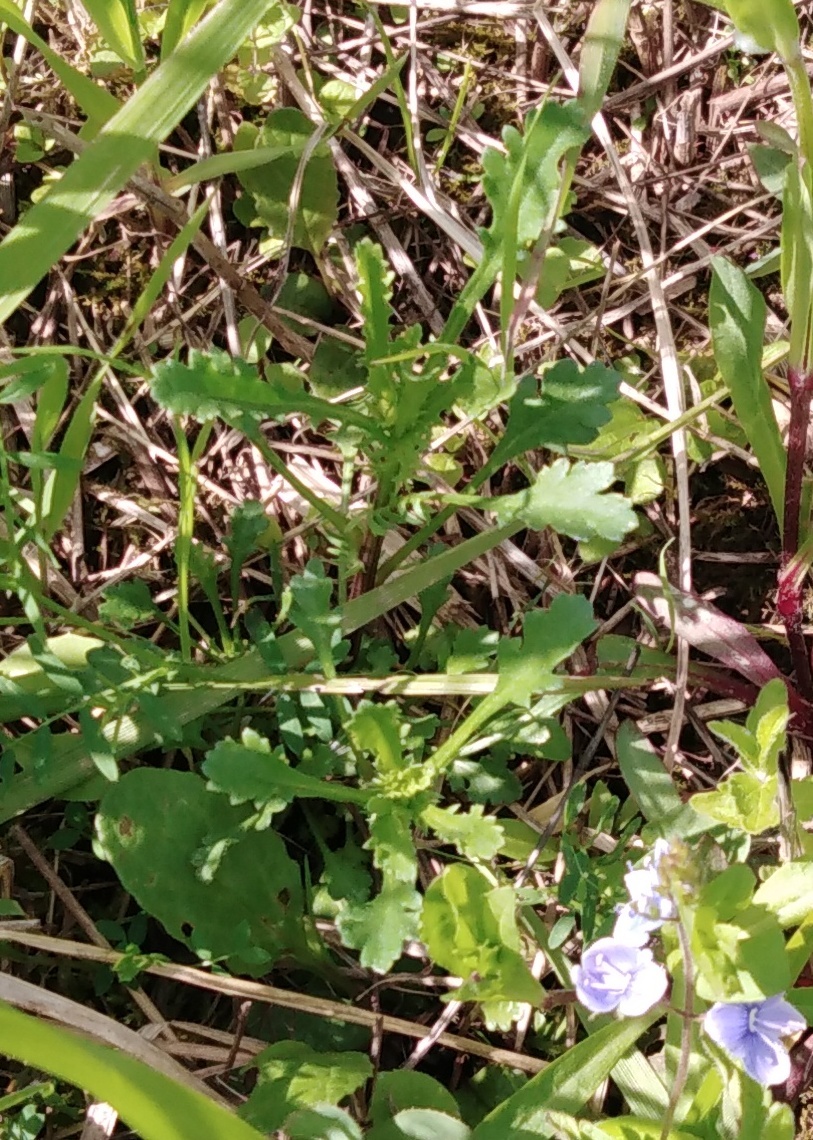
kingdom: Plantae
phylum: Tracheophyta
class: Magnoliopsida
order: Asterales
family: Asteraceae
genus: Leucanthemum
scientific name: Leucanthemum vulgare
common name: Oxeye daisy
